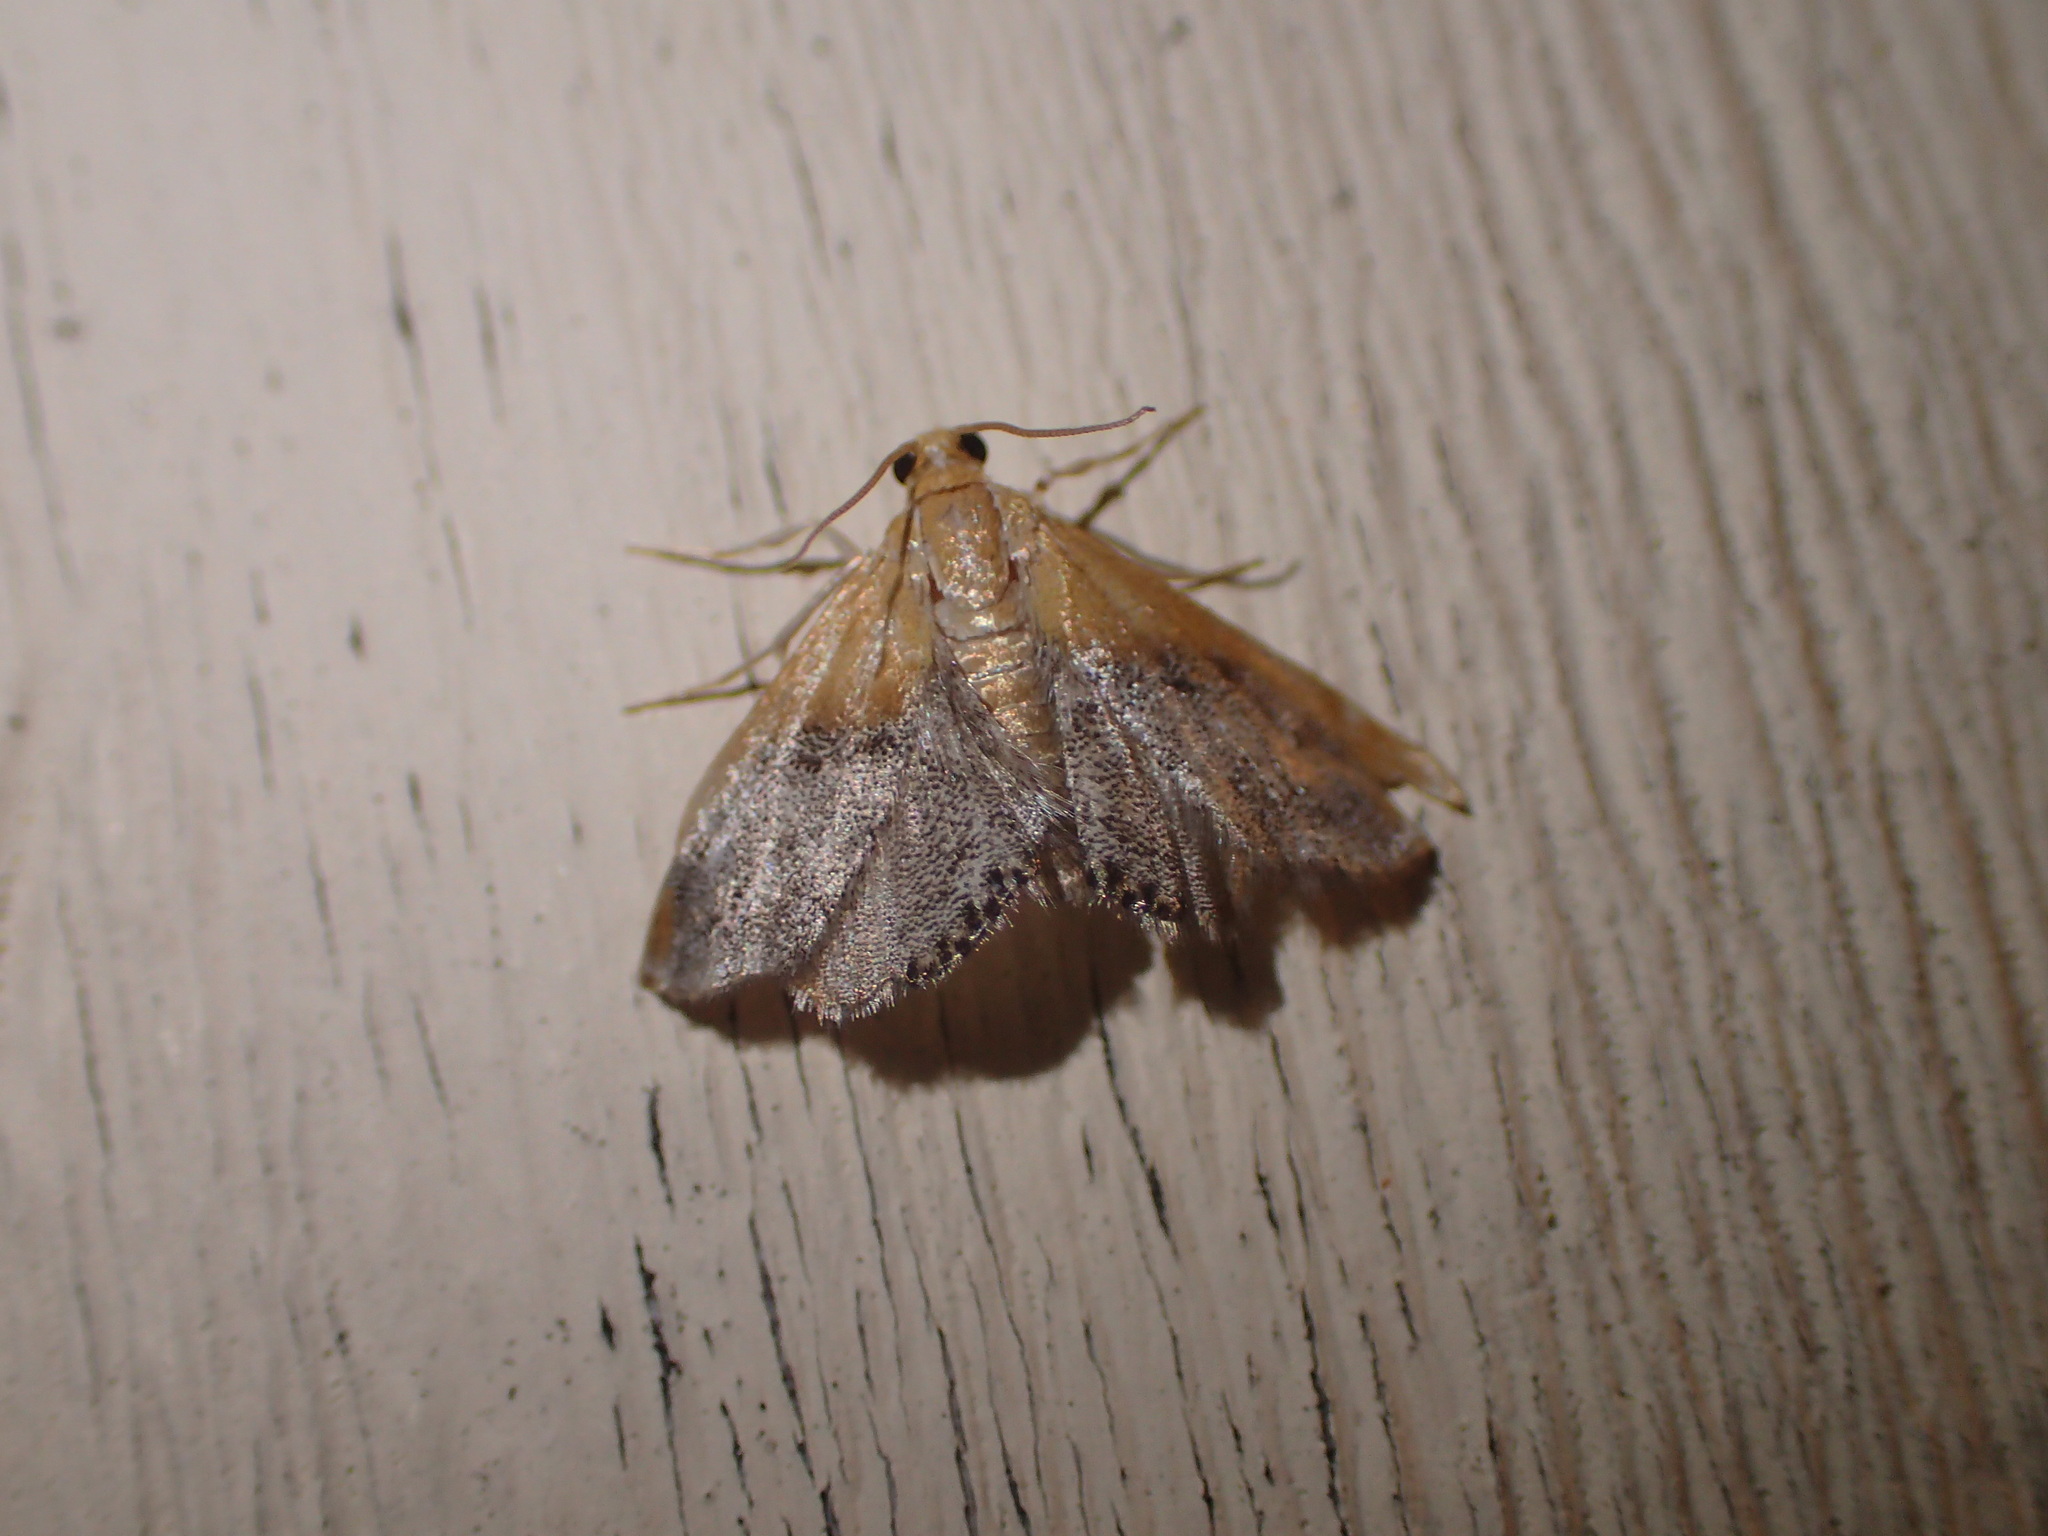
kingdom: Animalia
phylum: Arthropoda
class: Insecta
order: Lepidoptera
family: Crambidae
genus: Chalcoela
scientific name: Chalcoela iphitalis
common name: Sooty-winged chalcoela moth
